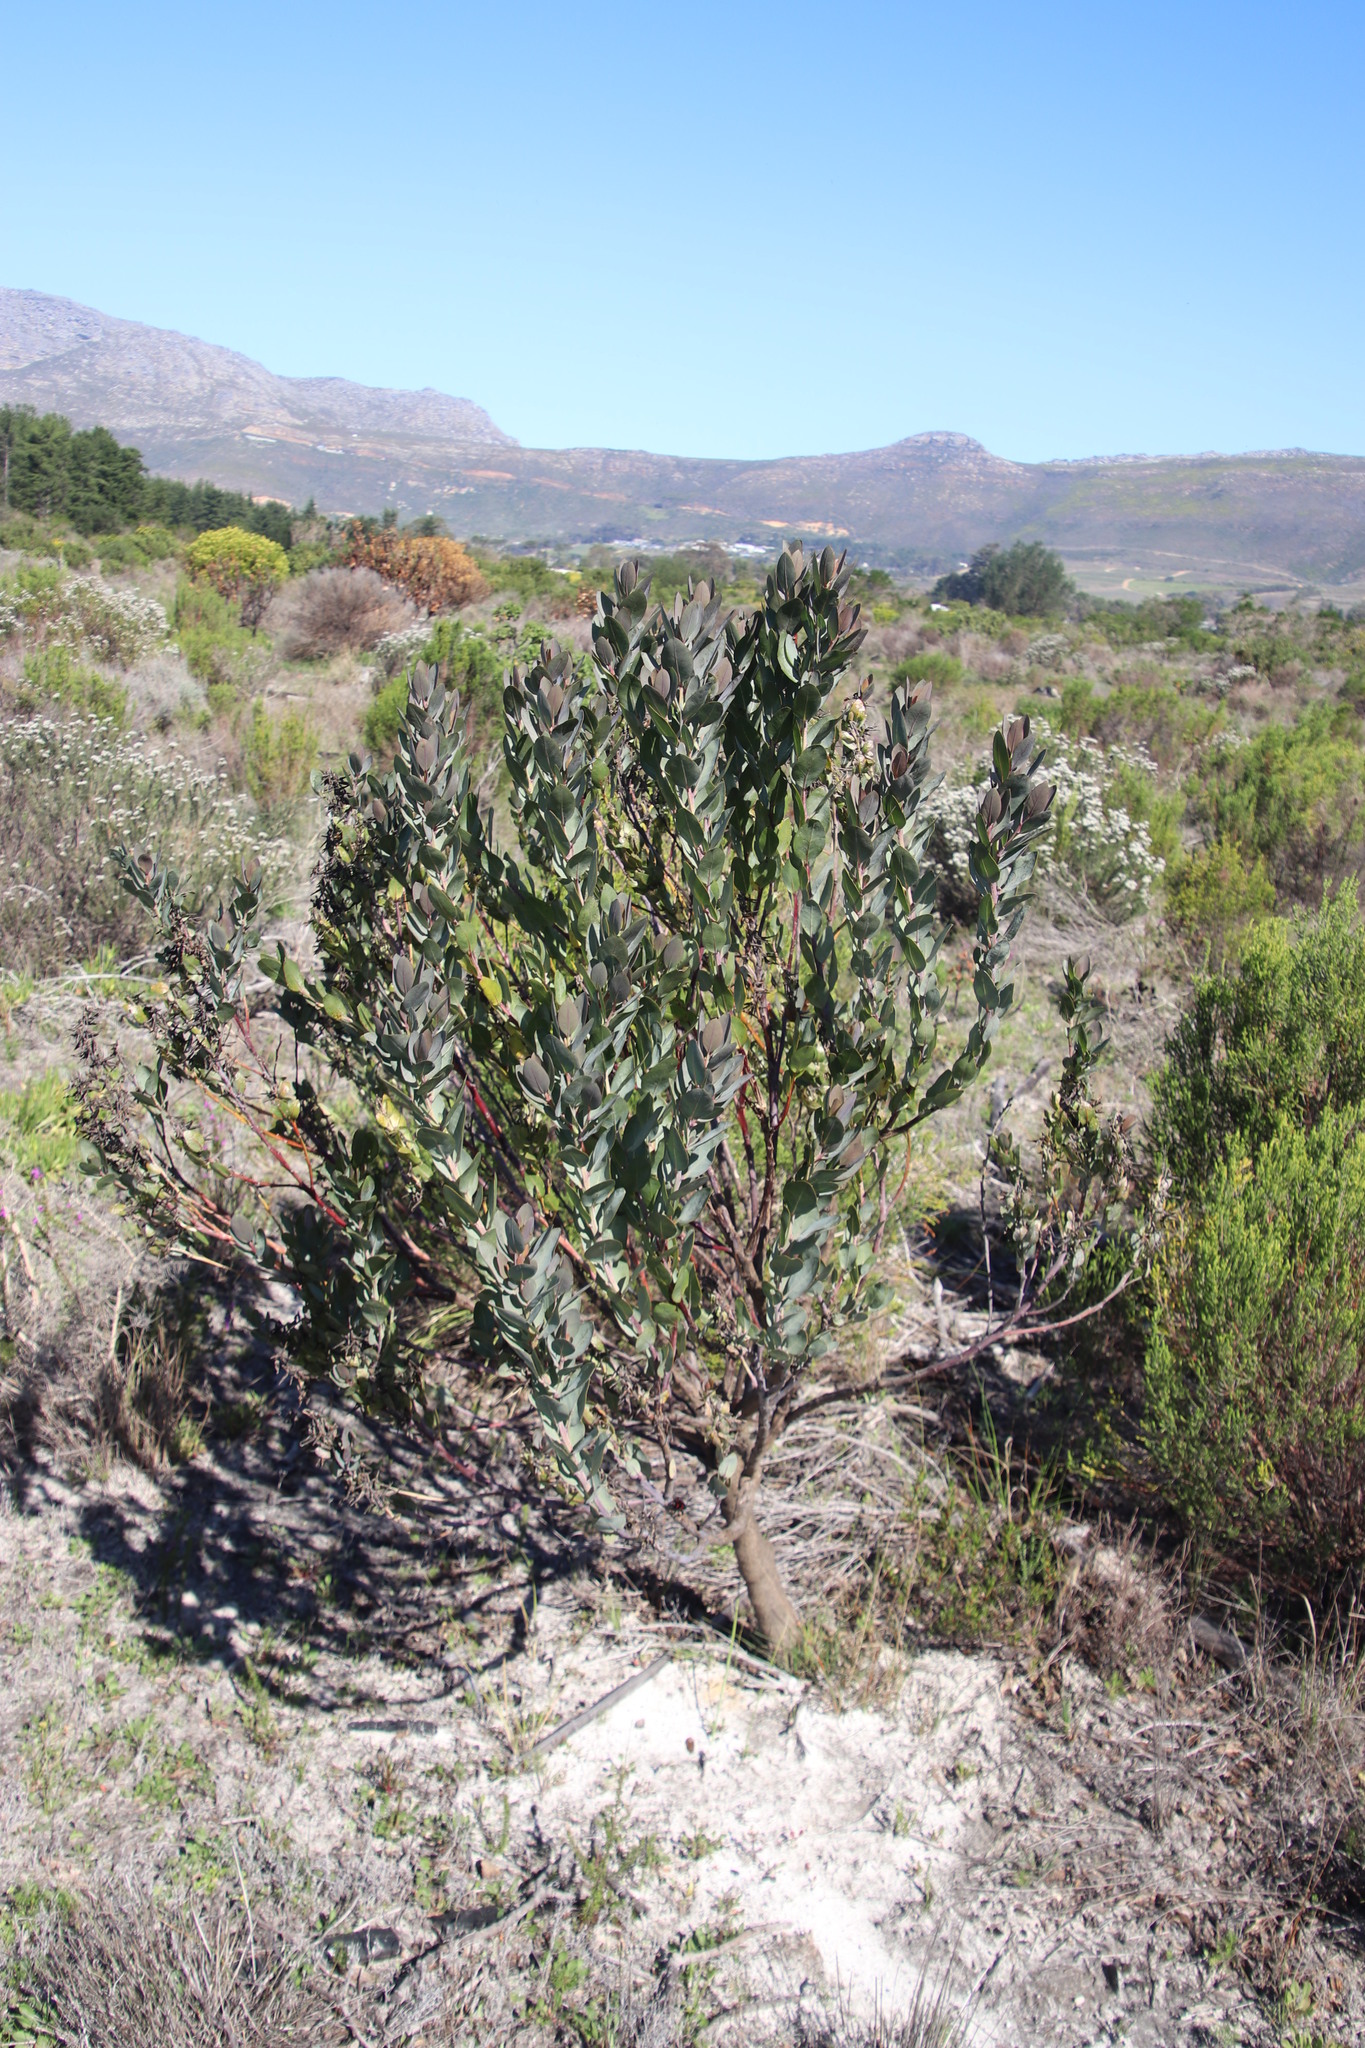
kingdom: Plantae
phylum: Tracheophyta
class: Magnoliopsida
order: Fabales
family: Fabaceae
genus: Rafnia
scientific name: Rafnia triflora
